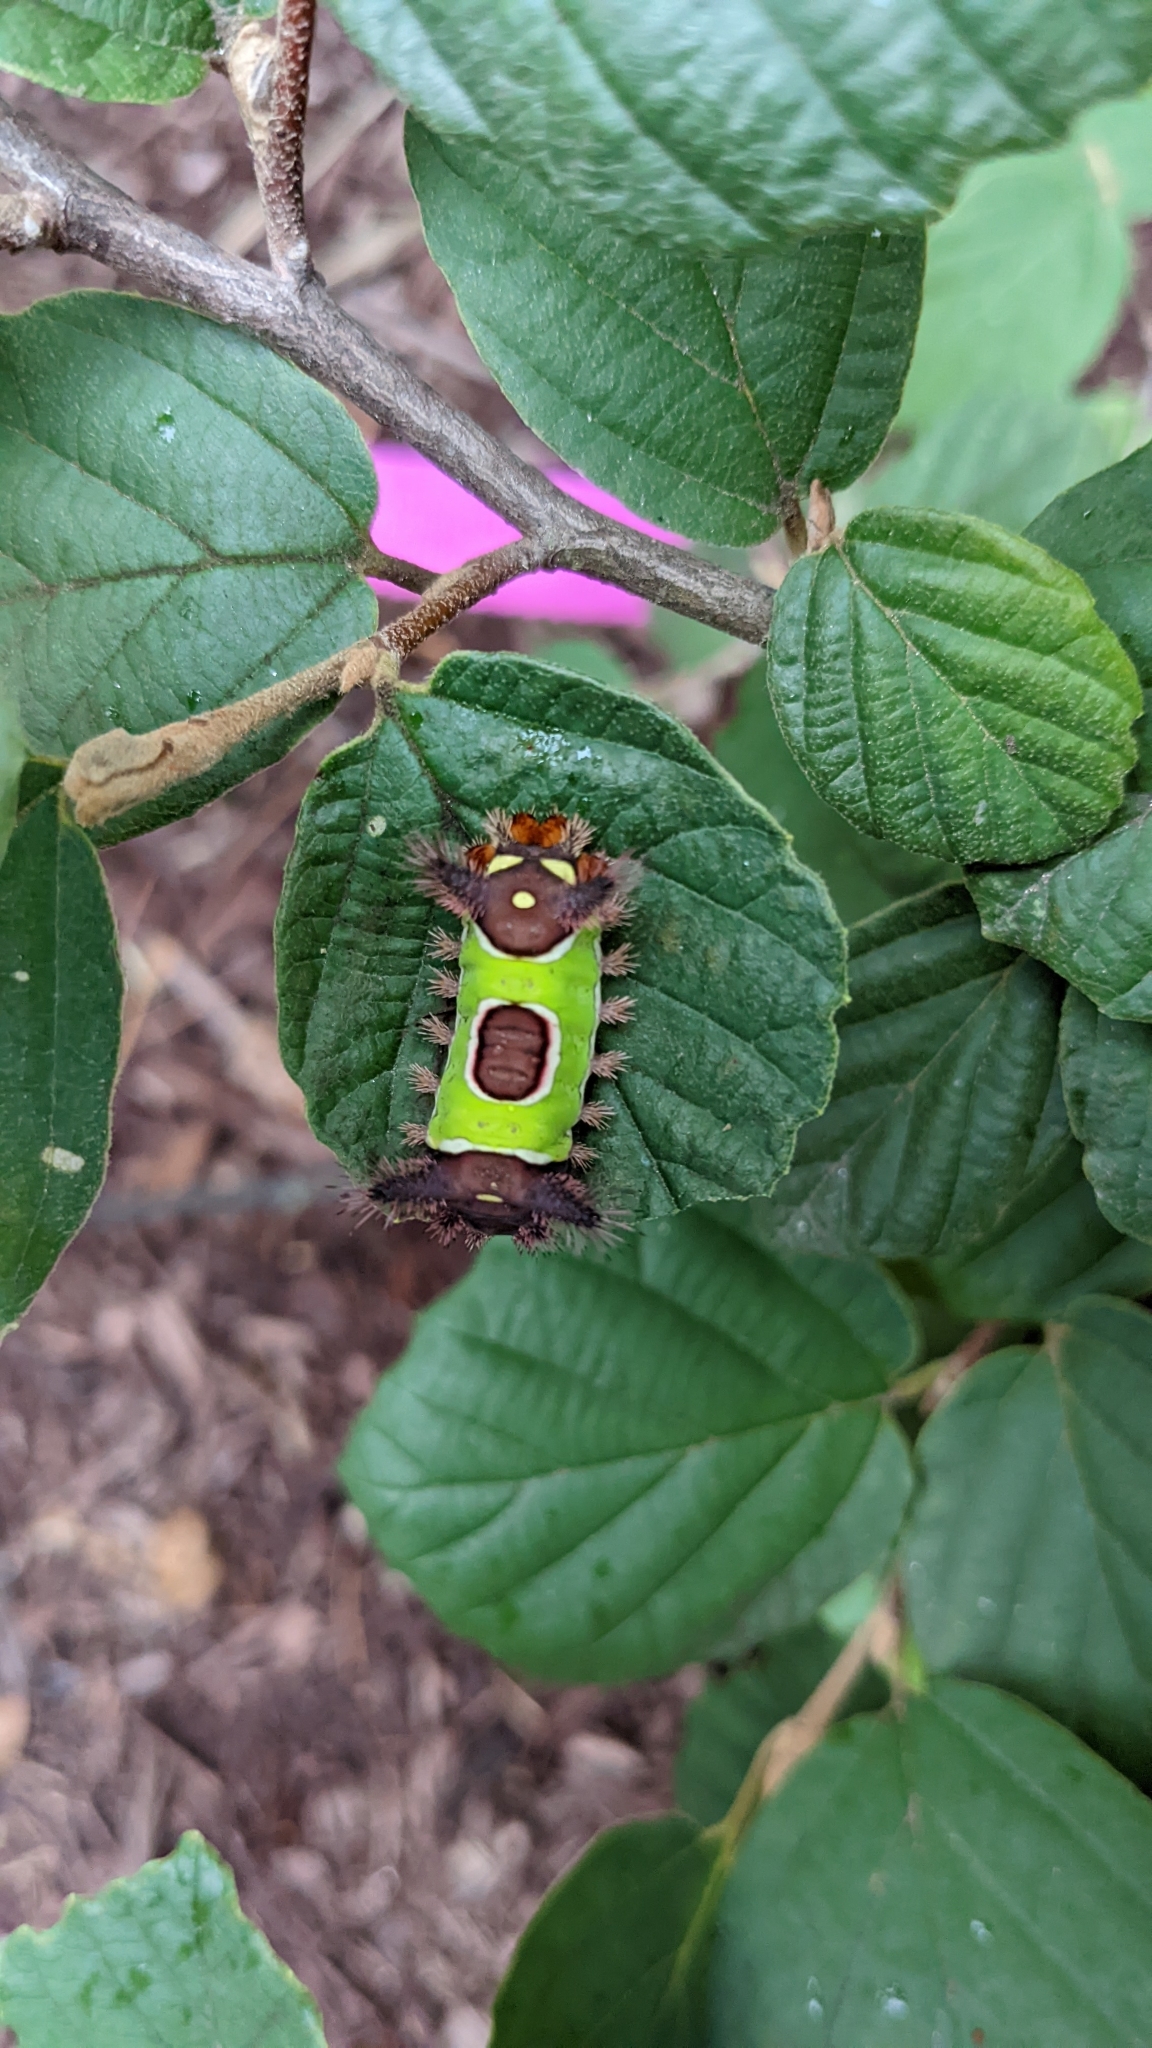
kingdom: Animalia
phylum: Arthropoda
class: Insecta
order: Lepidoptera
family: Limacodidae
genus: Acharia
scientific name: Acharia stimulea
